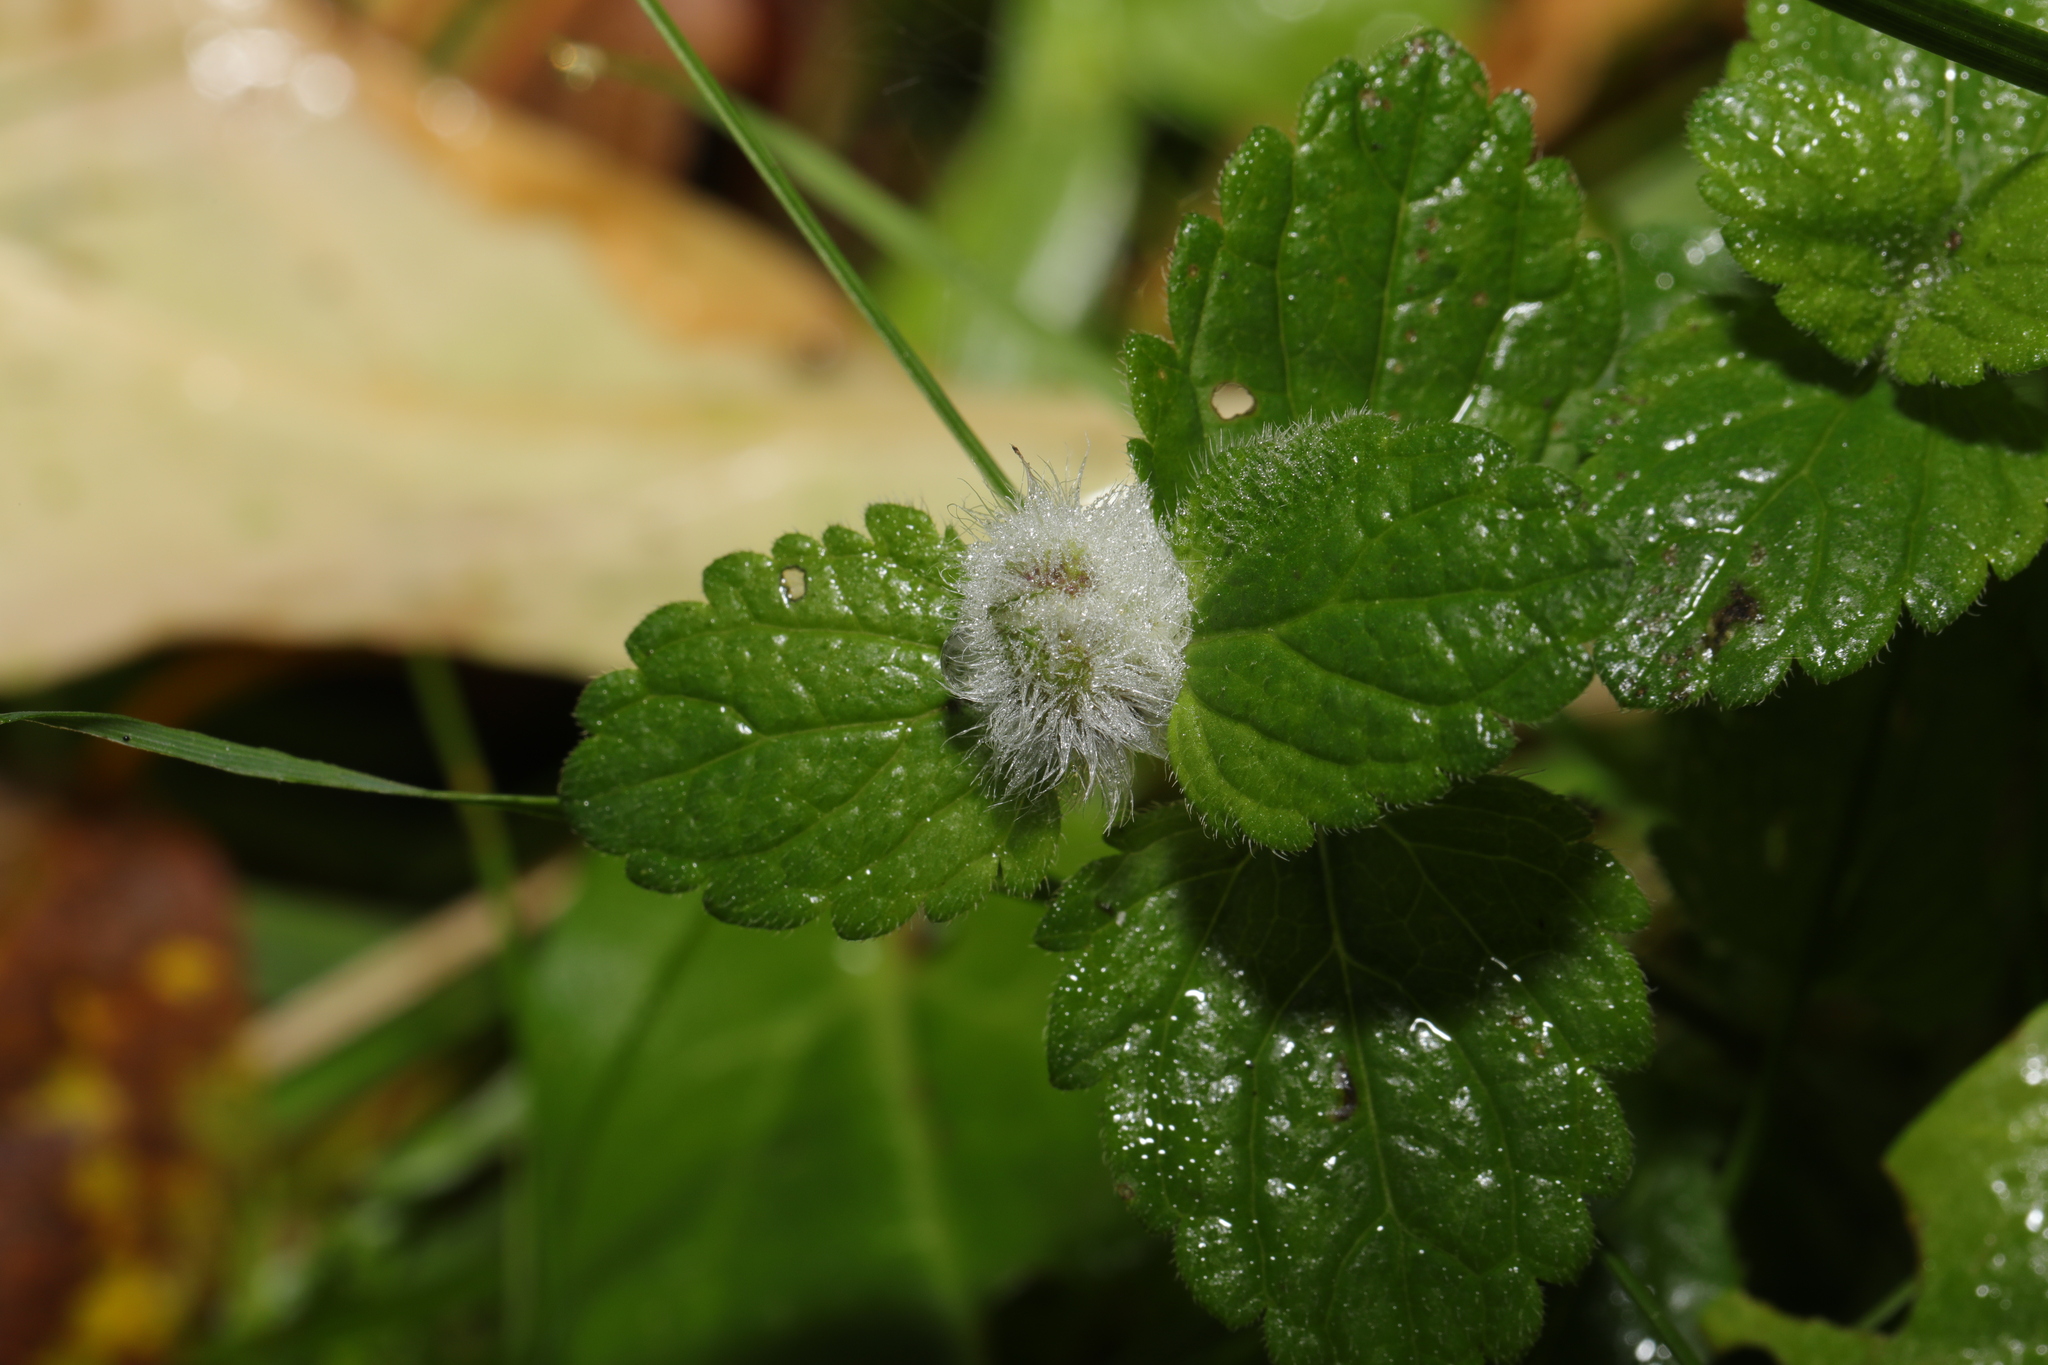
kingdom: Animalia
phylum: Arthropoda
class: Insecta
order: Diptera
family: Cecidomyiidae
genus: Jaapiella
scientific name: Jaapiella veronicae
